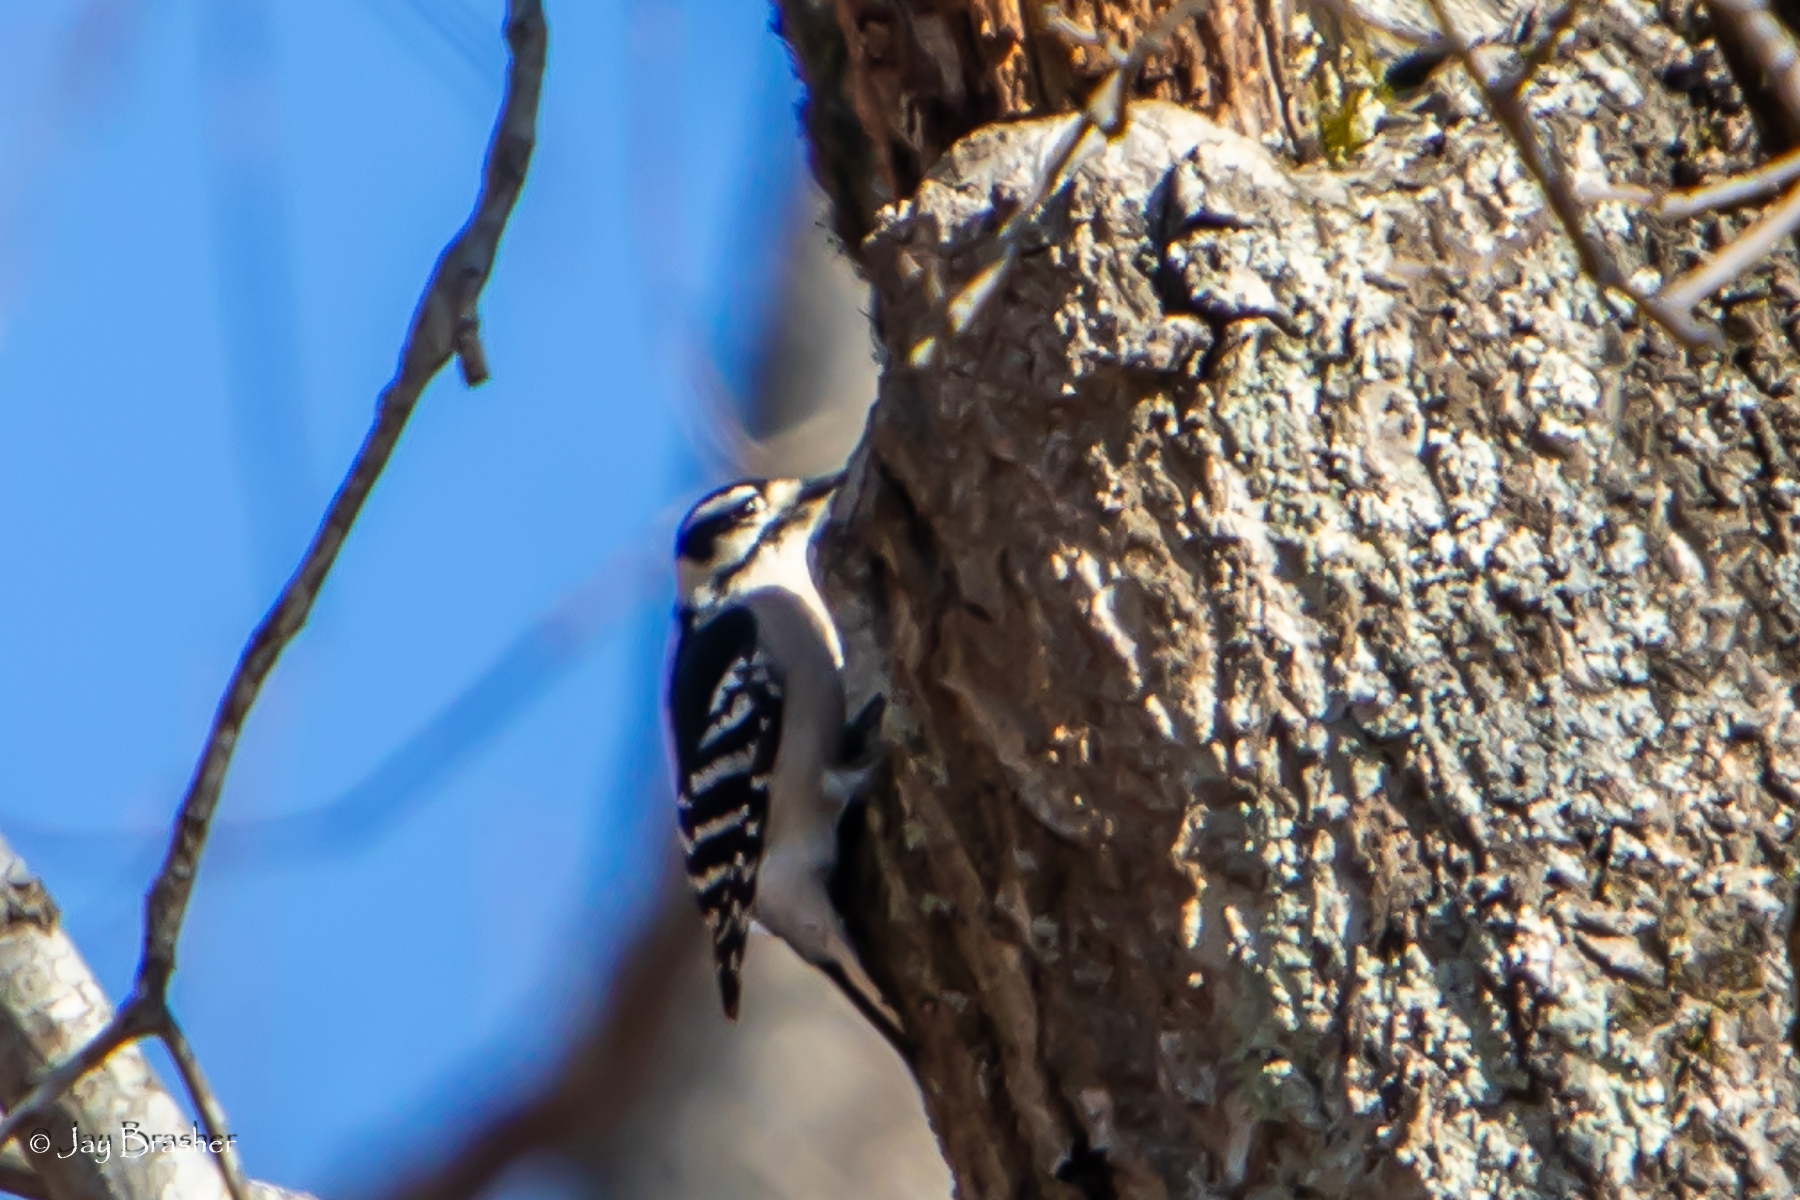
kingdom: Animalia
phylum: Chordata
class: Aves
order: Piciformes
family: Picidae
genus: Dryobates
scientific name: Dryobates pubescens
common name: Downy woodpecker
